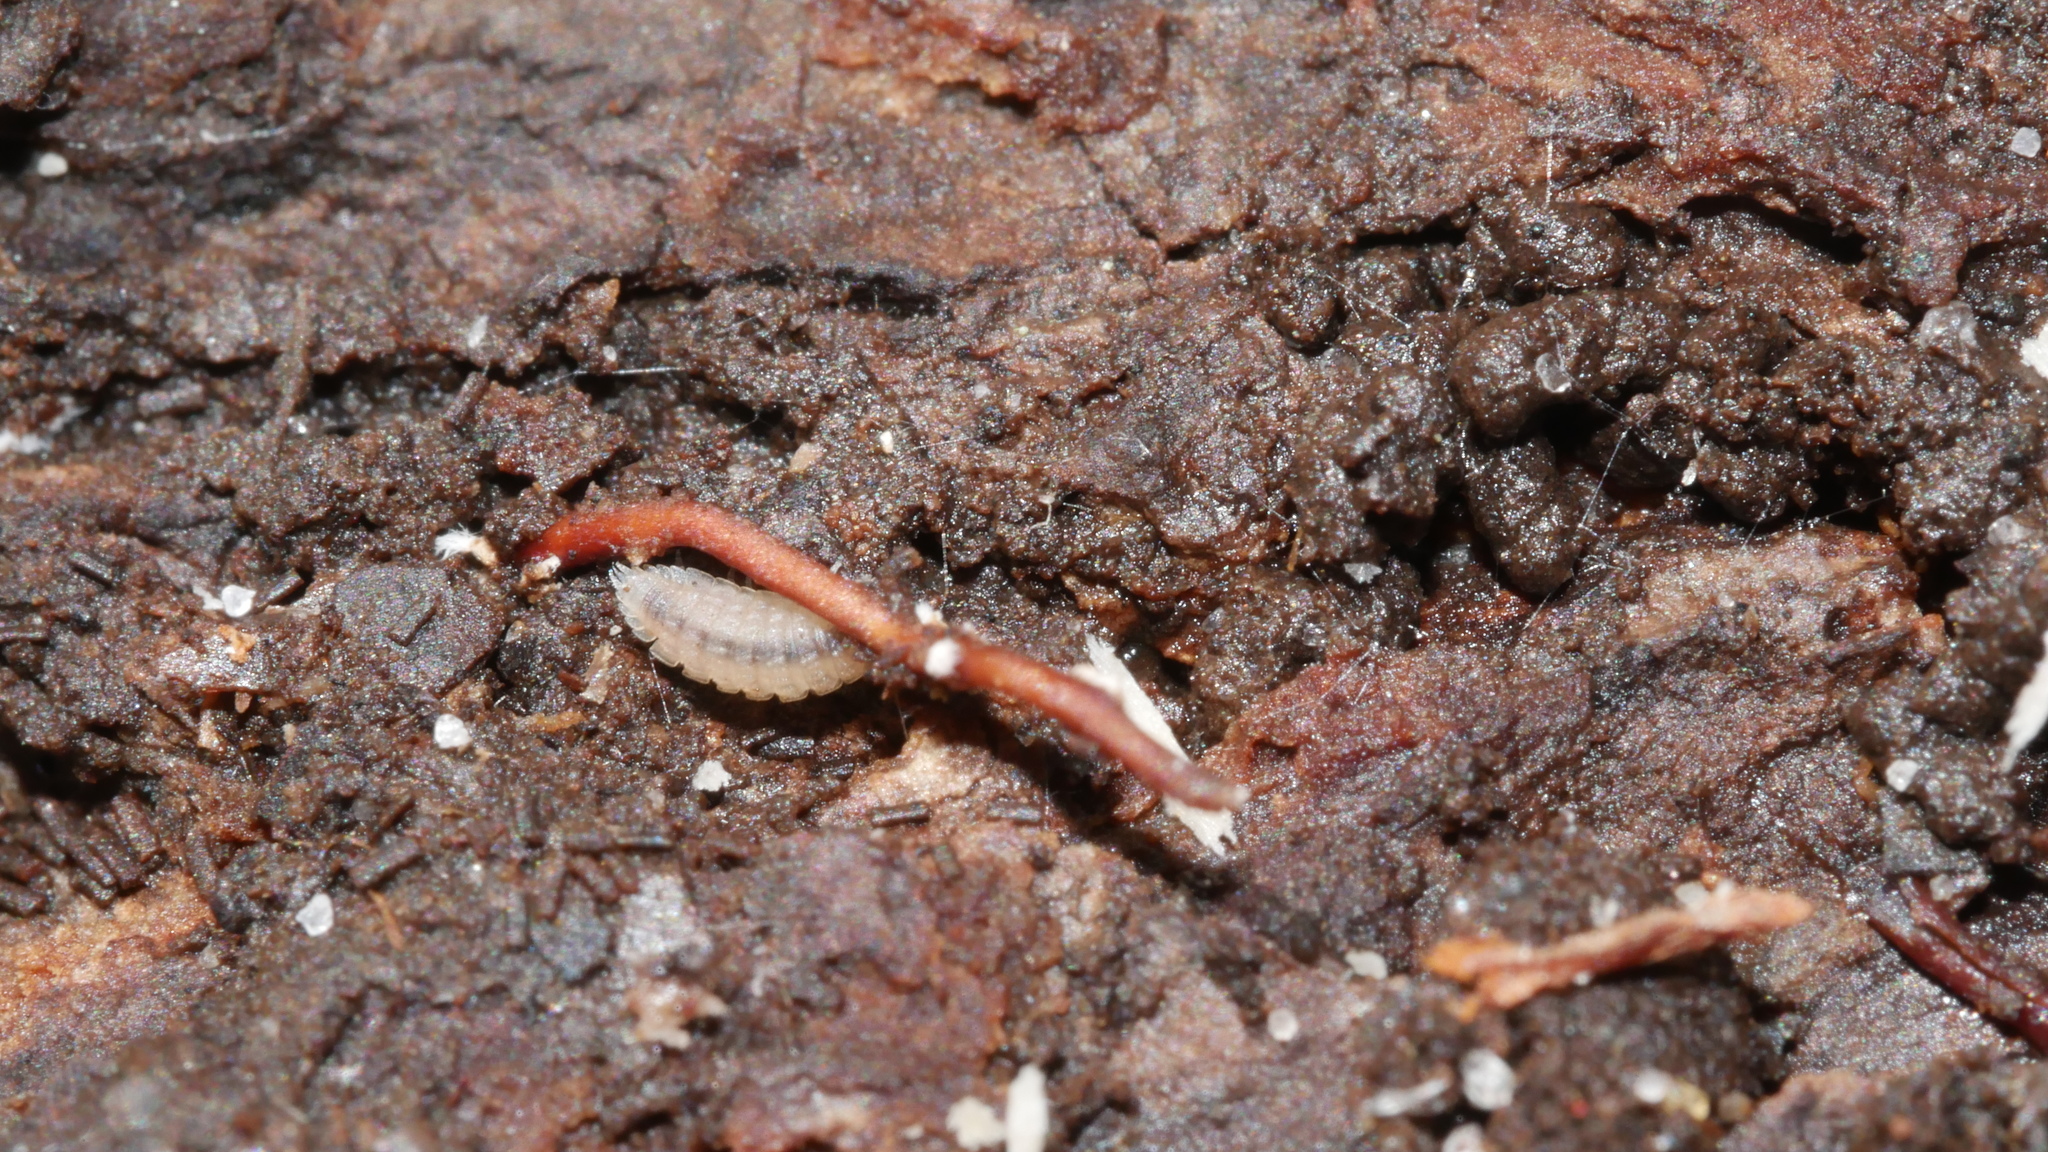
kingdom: Animalia
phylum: Arthropoda
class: Malacostraca
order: Isopoda
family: Trichoniscidae
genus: Haplophthalmus
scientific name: Haplophthalmus danicus
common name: Pillbug
